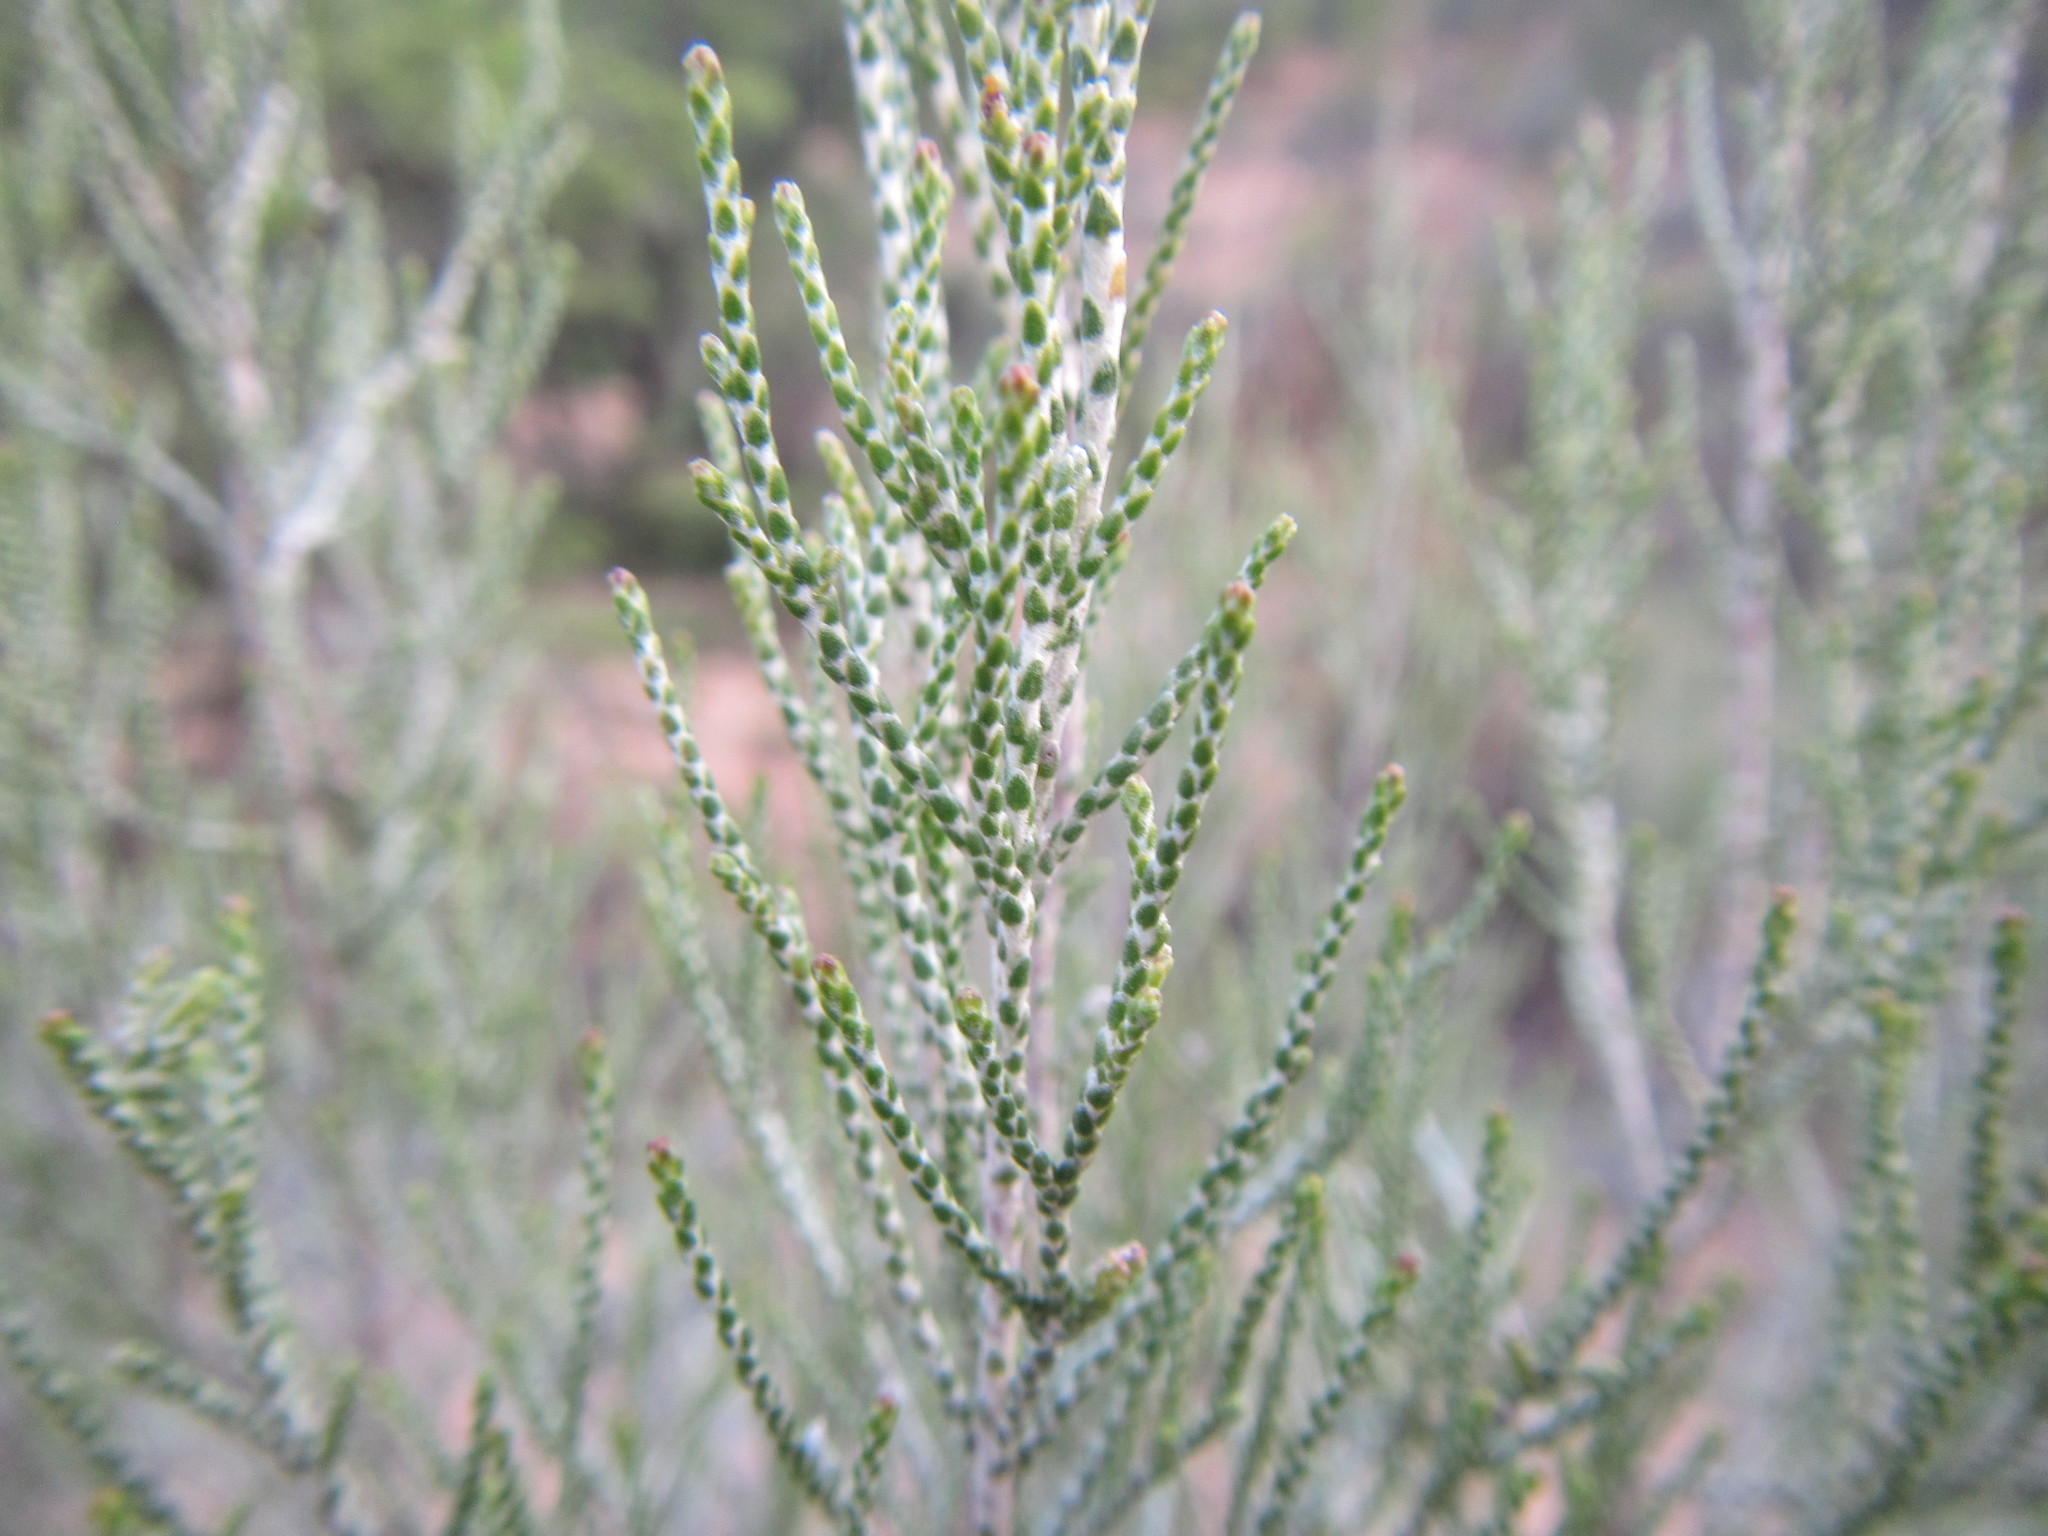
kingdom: Plantae
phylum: Tracheophyta
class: Magnoliopsida
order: Asterales
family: Asteraceae
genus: Dicerothamnus
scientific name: Dicerothamnus rhinocerotis
